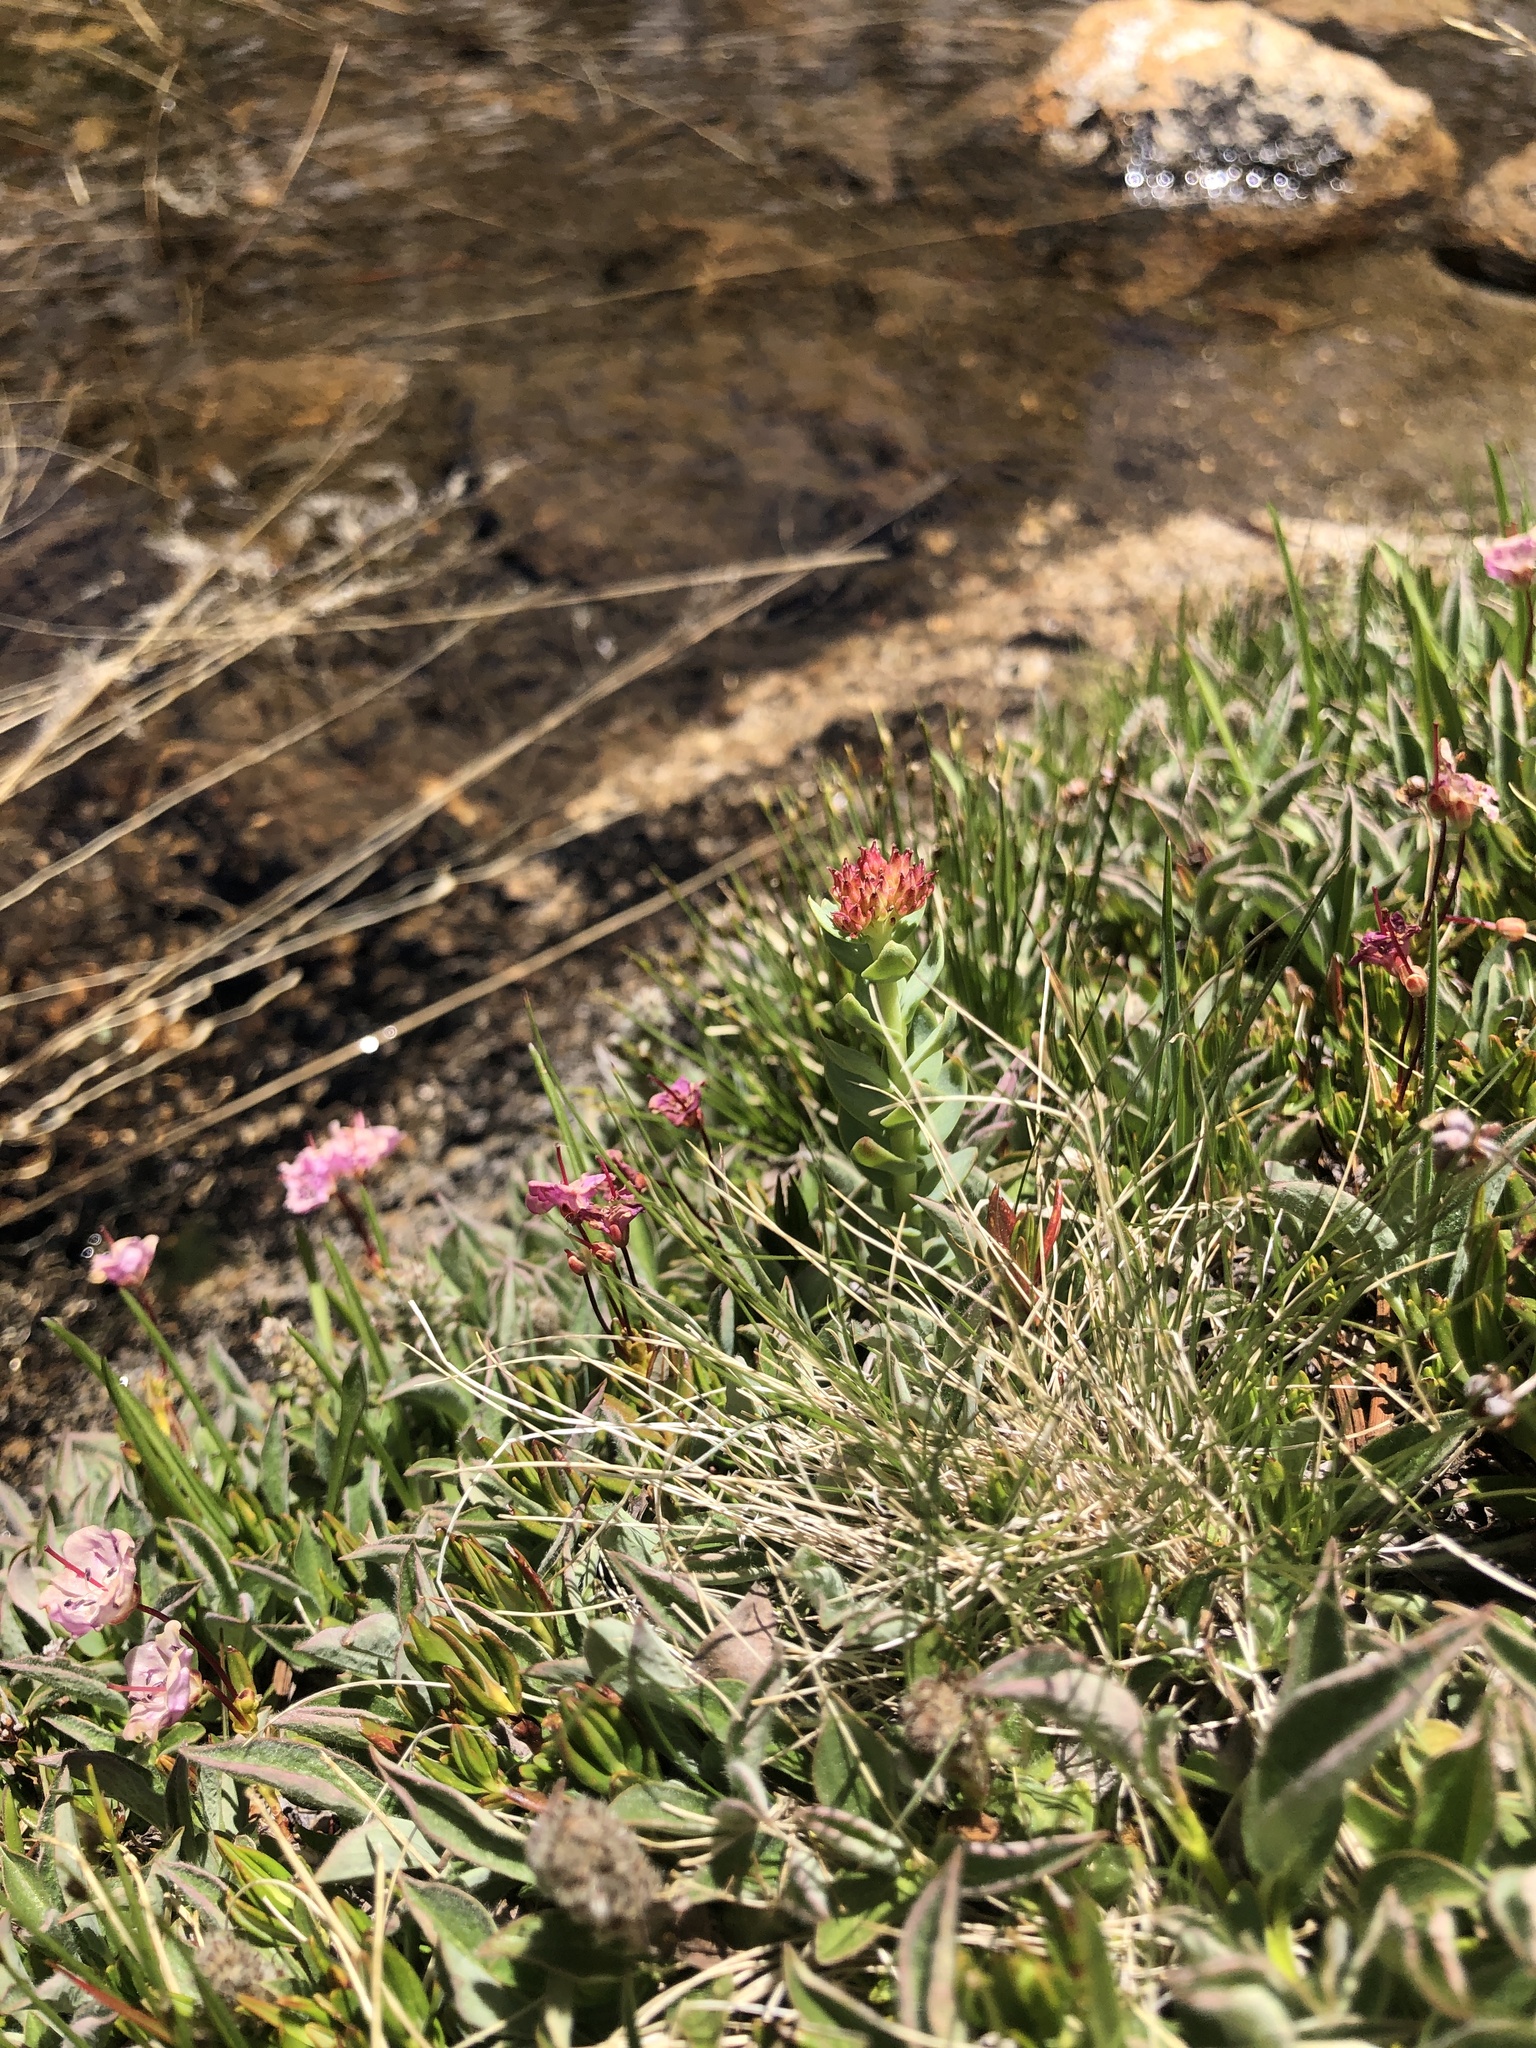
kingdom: Plantae
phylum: Tracheophyta
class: Magnoliopsida
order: Saxifragales
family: Crassulaceae
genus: Rhodiola
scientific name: Rhodiola integrifolia
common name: Western roseroot
